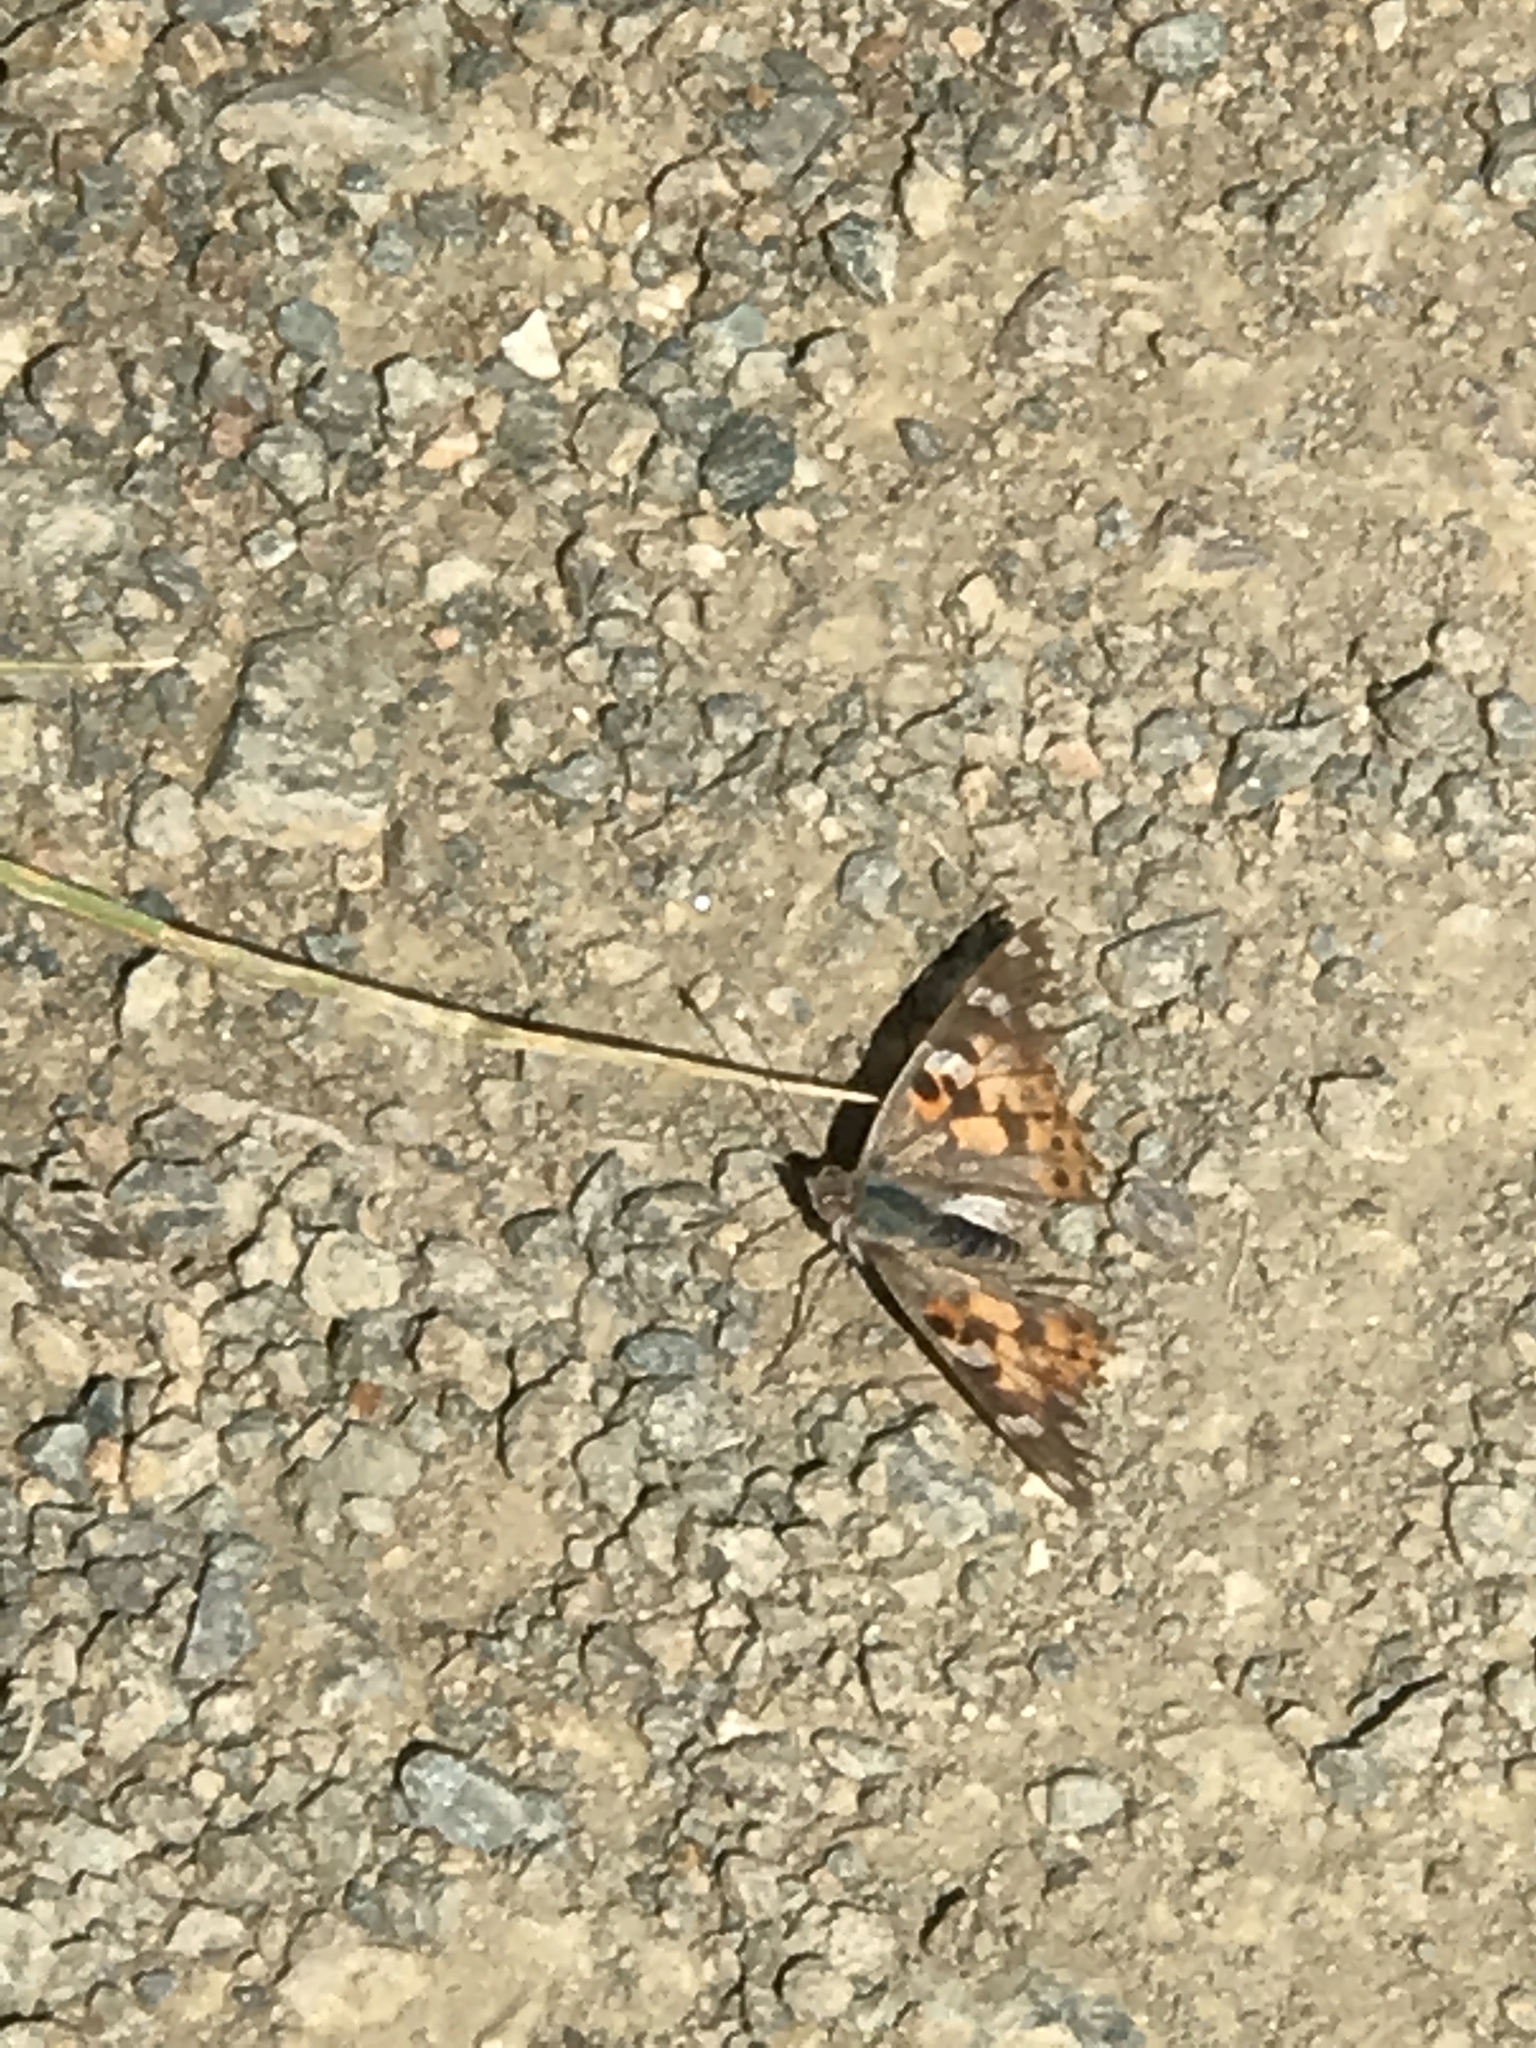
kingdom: Animalia
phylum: Arthropoda
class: Insecta
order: Lepidoptera
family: Nymphalidae
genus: Vanessa
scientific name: Vanessa cardui
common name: Painted lady
